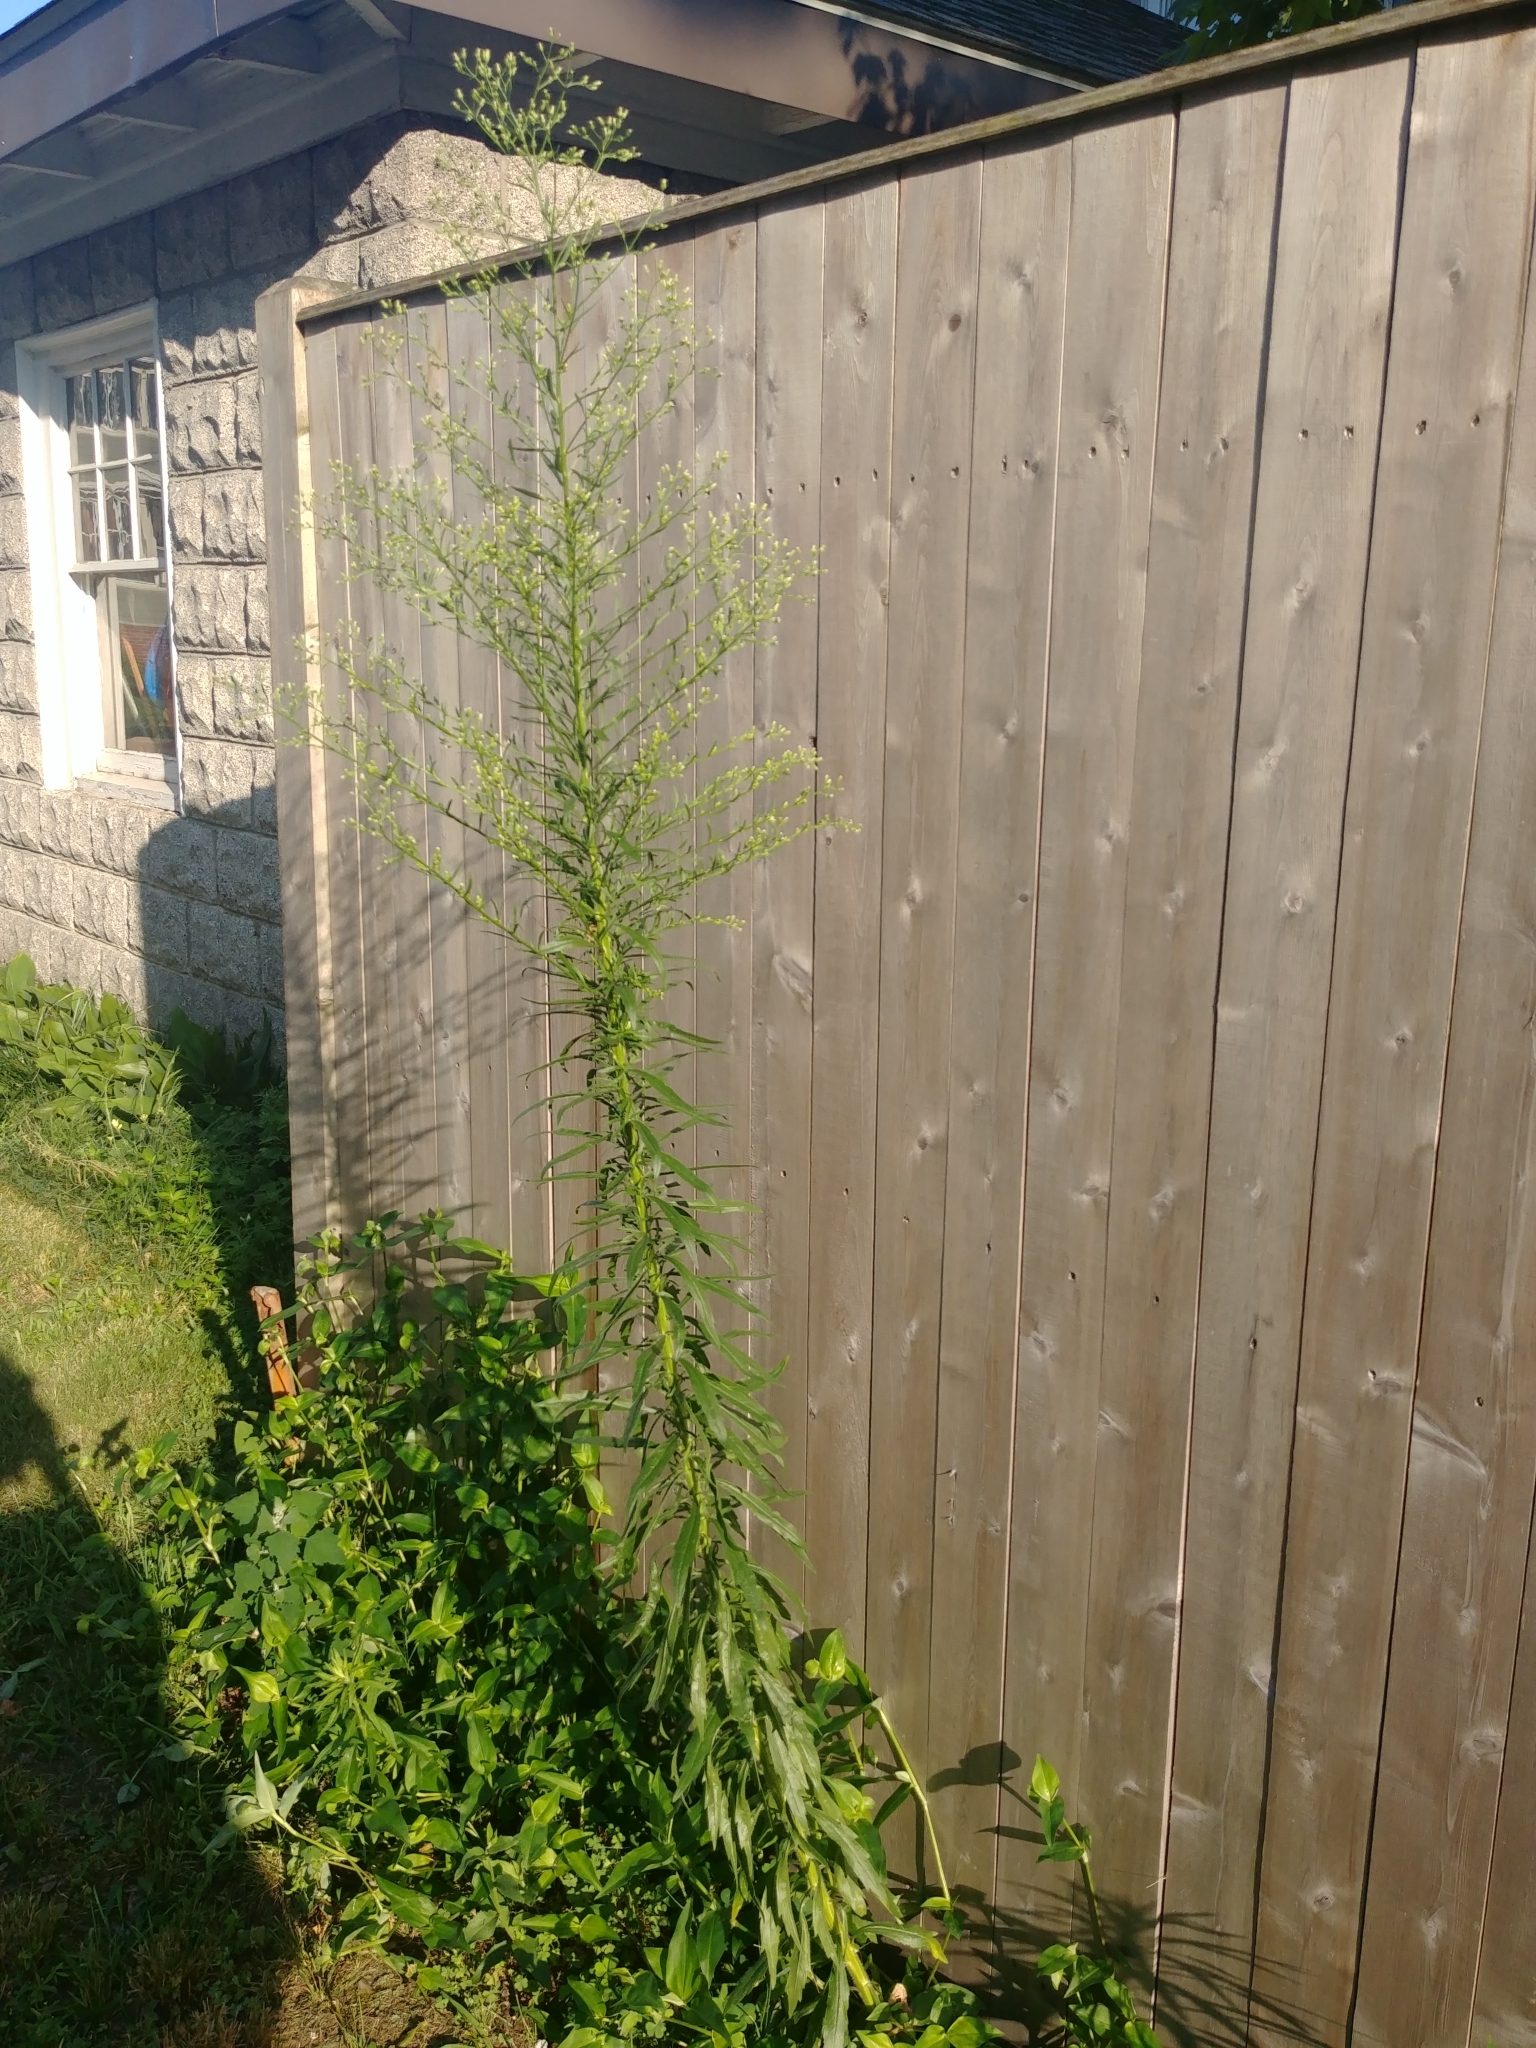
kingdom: Plantae
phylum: Tracheophyta
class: Magnoliopsida
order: Asterales
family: Asteraceae
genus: Erigeron
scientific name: Erigeron canadensis
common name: Canadian fleabane
